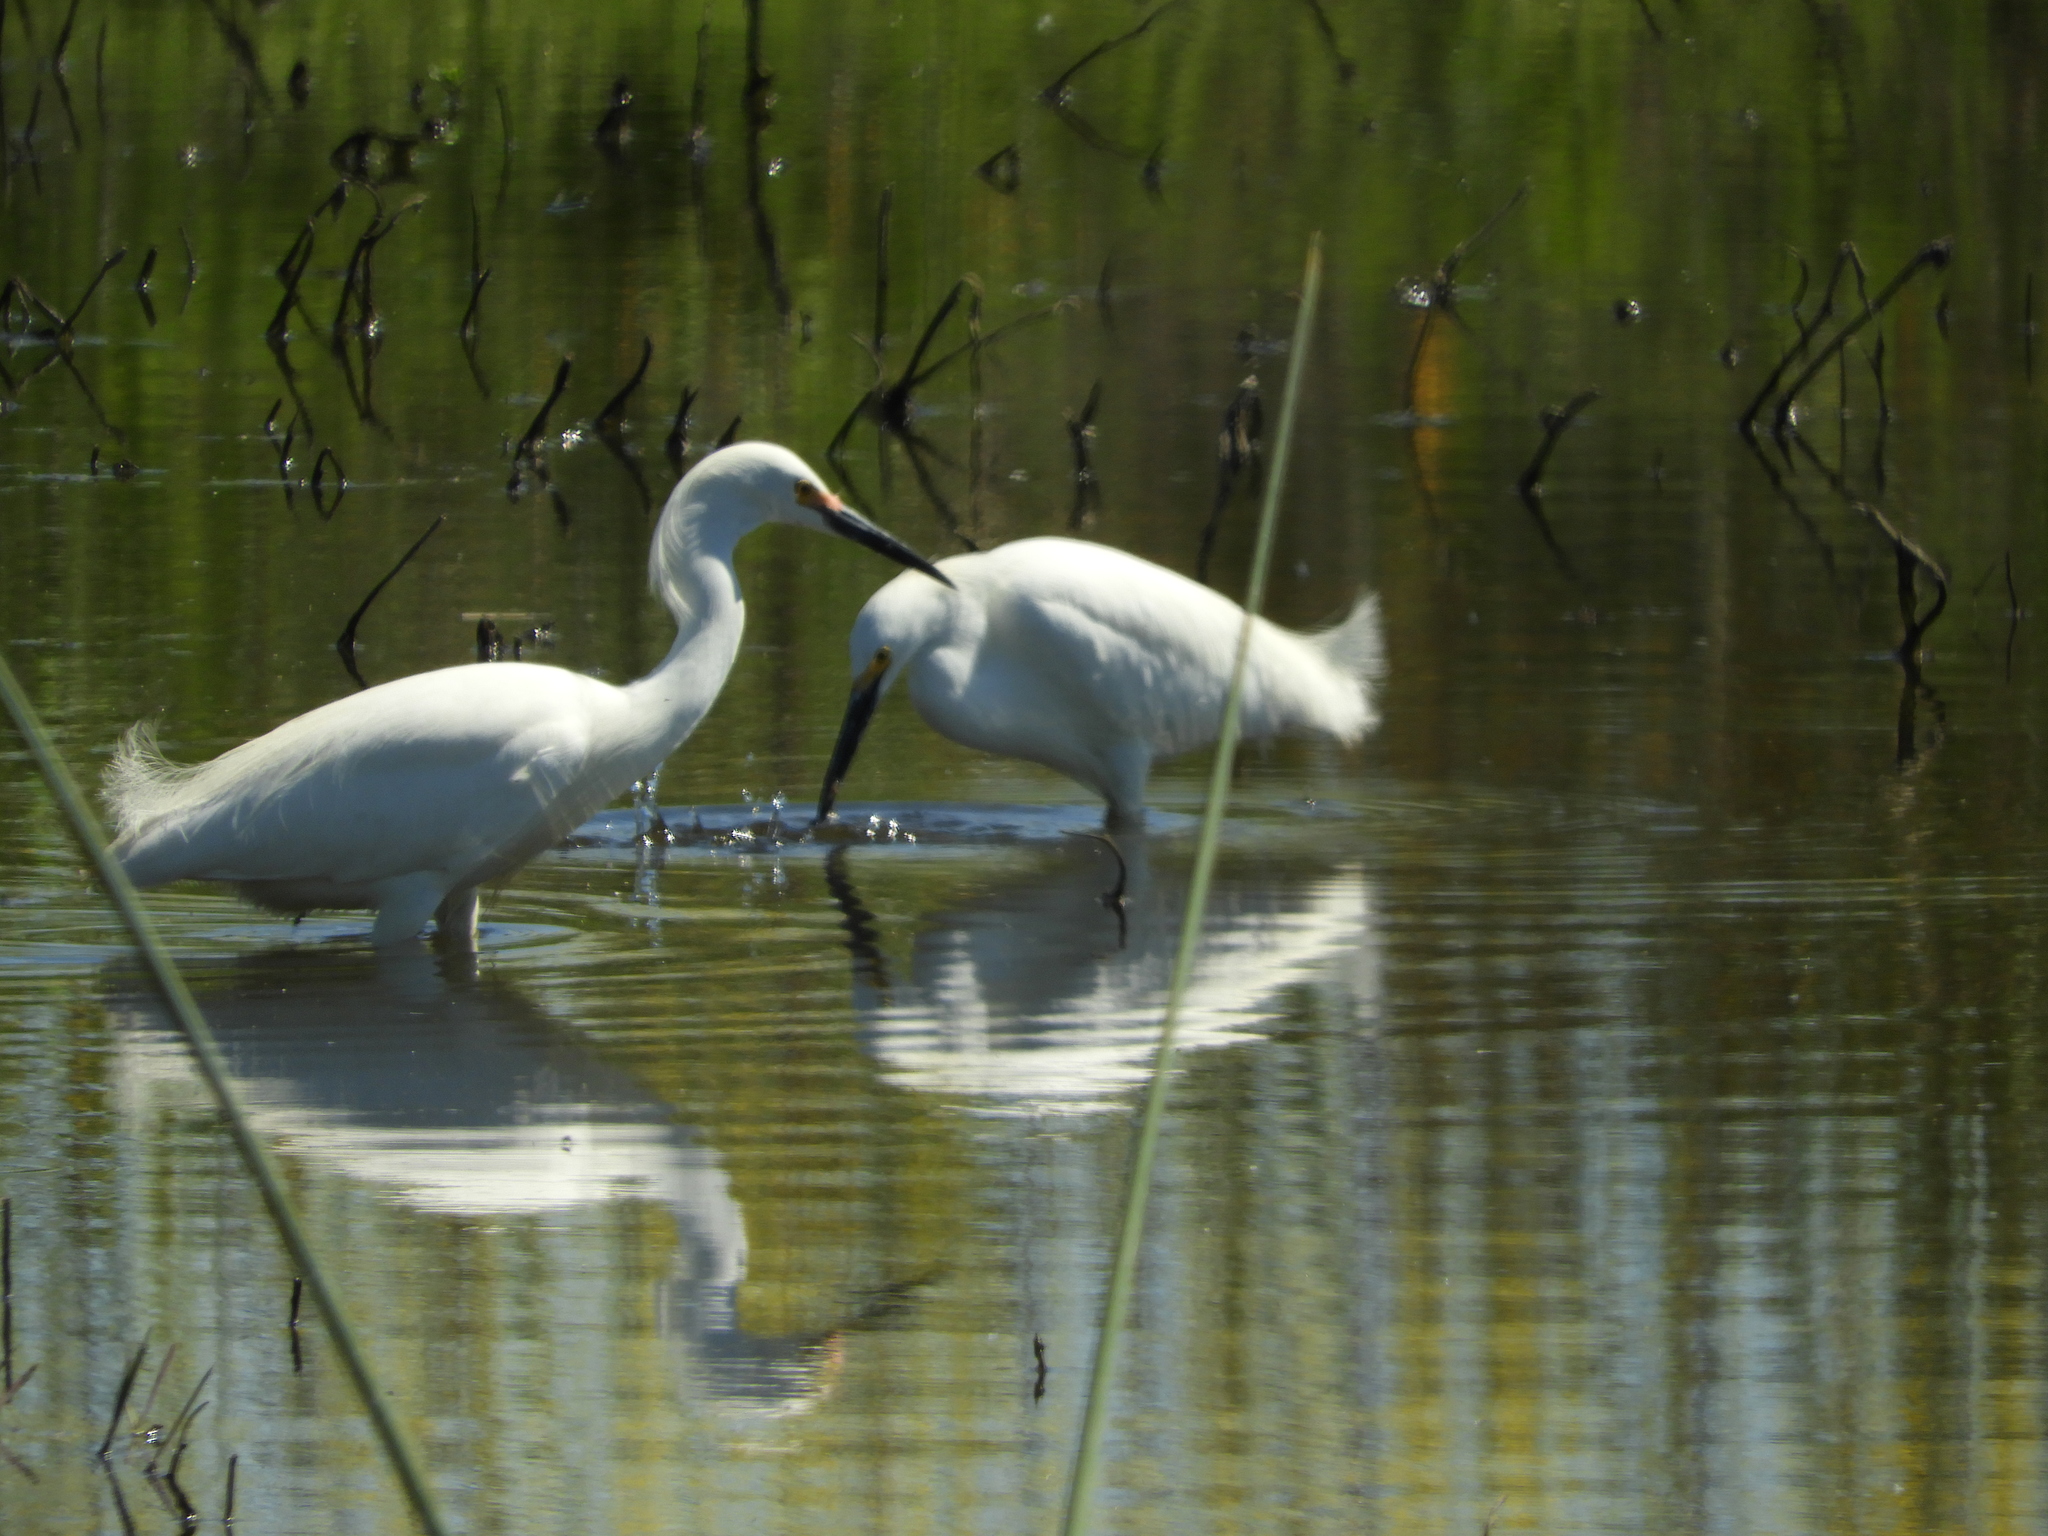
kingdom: Animalia
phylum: Chordata
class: Aves
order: Pelecaniformes
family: Ardeidae
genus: Egretta
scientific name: Egretta thula
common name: Snowy egret
